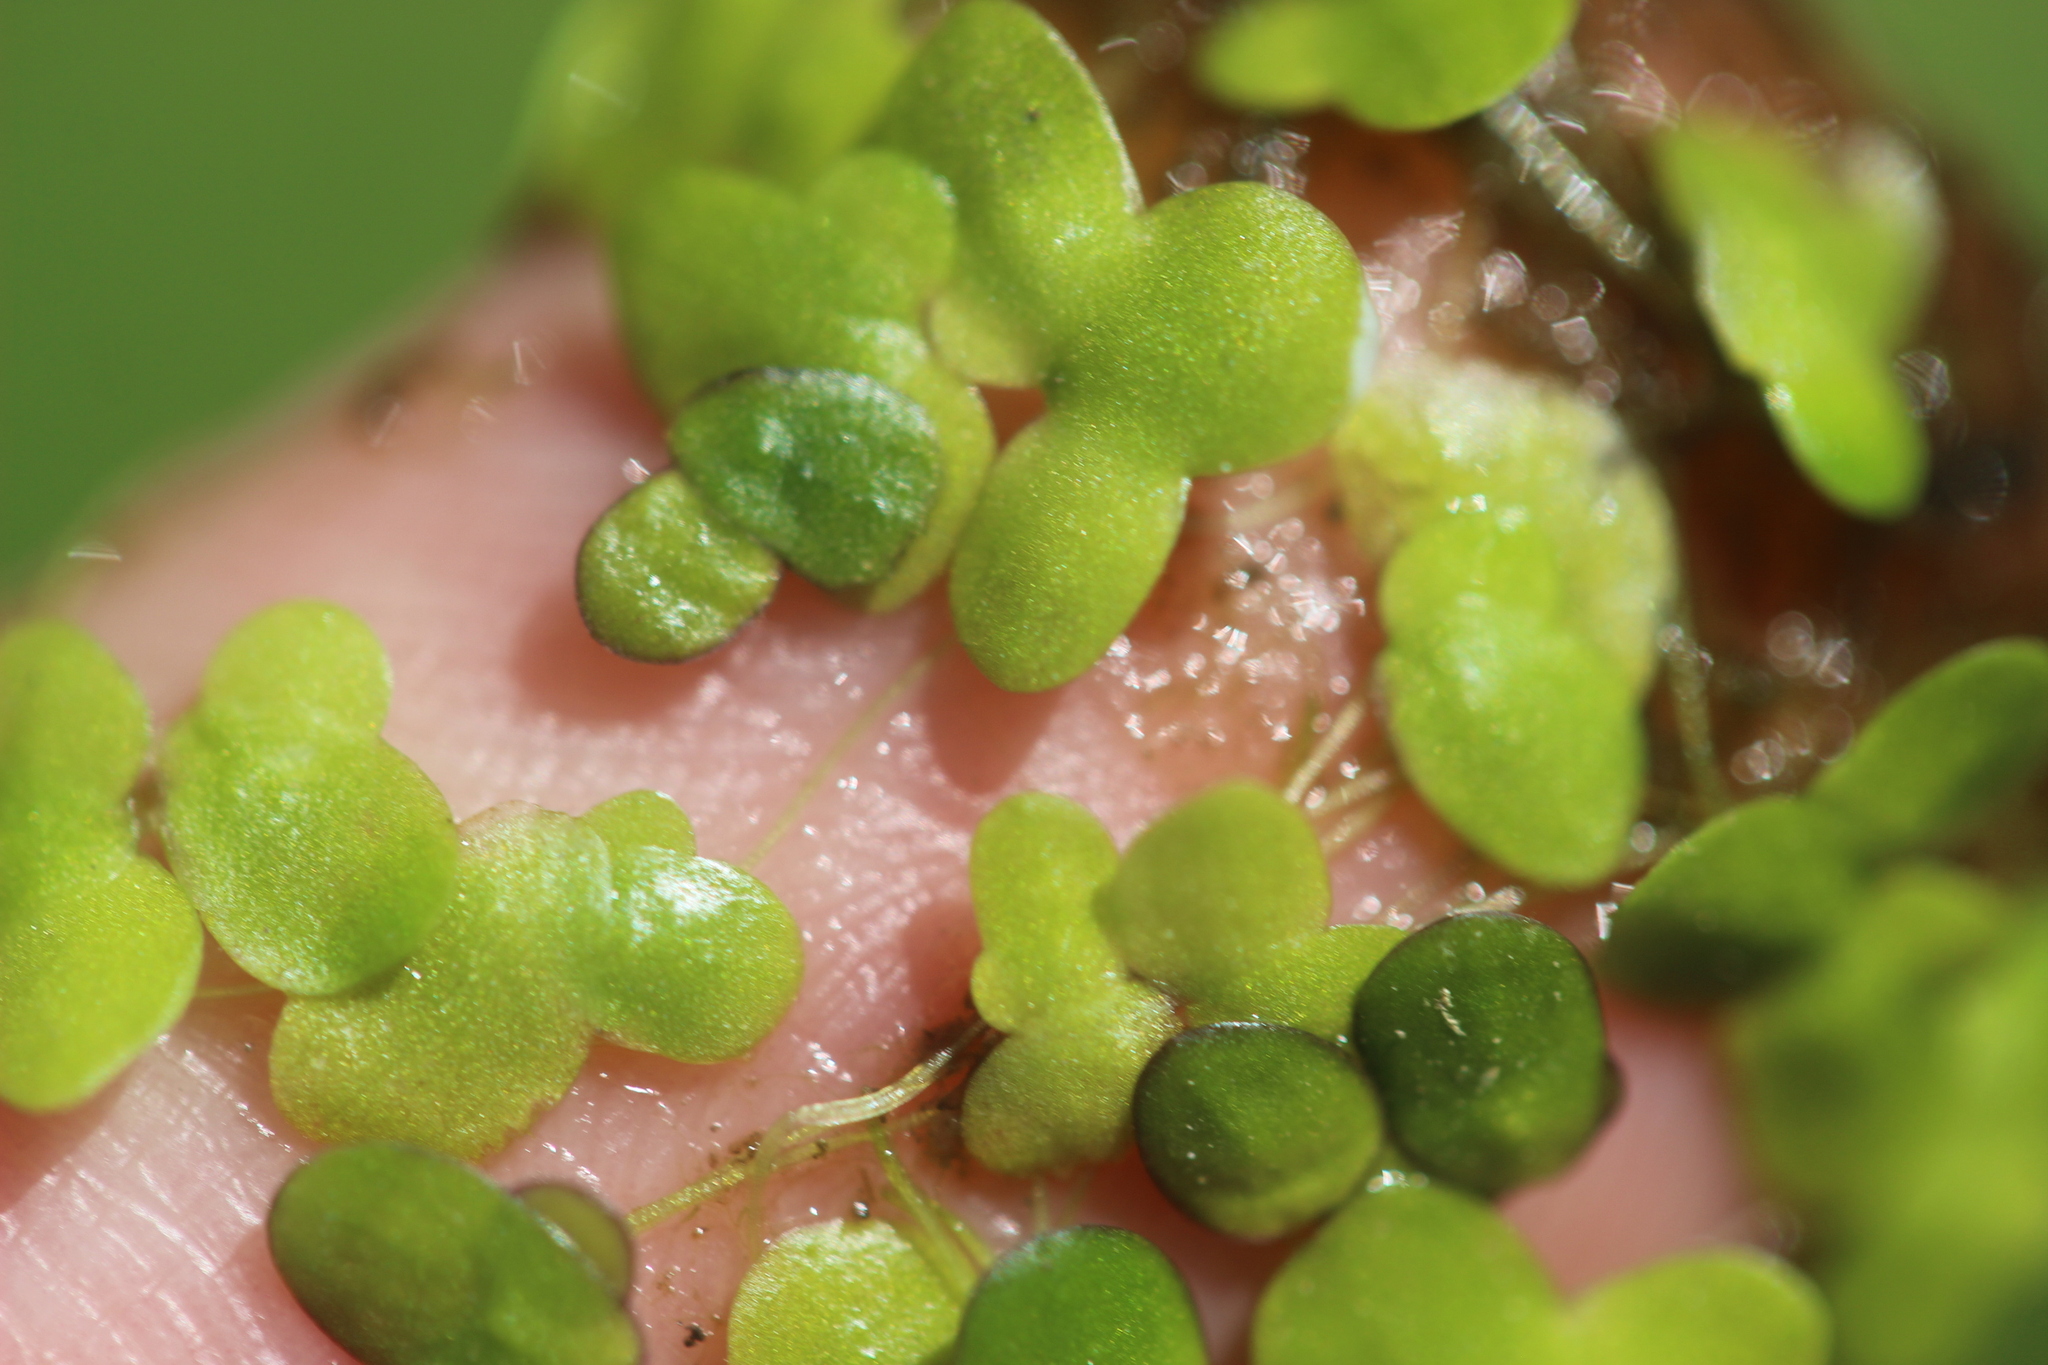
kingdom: Plantae
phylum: Tracheophyta
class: Liliopsida
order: Alismatales
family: Araceae
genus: Spirodela
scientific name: Spirodela punctata
